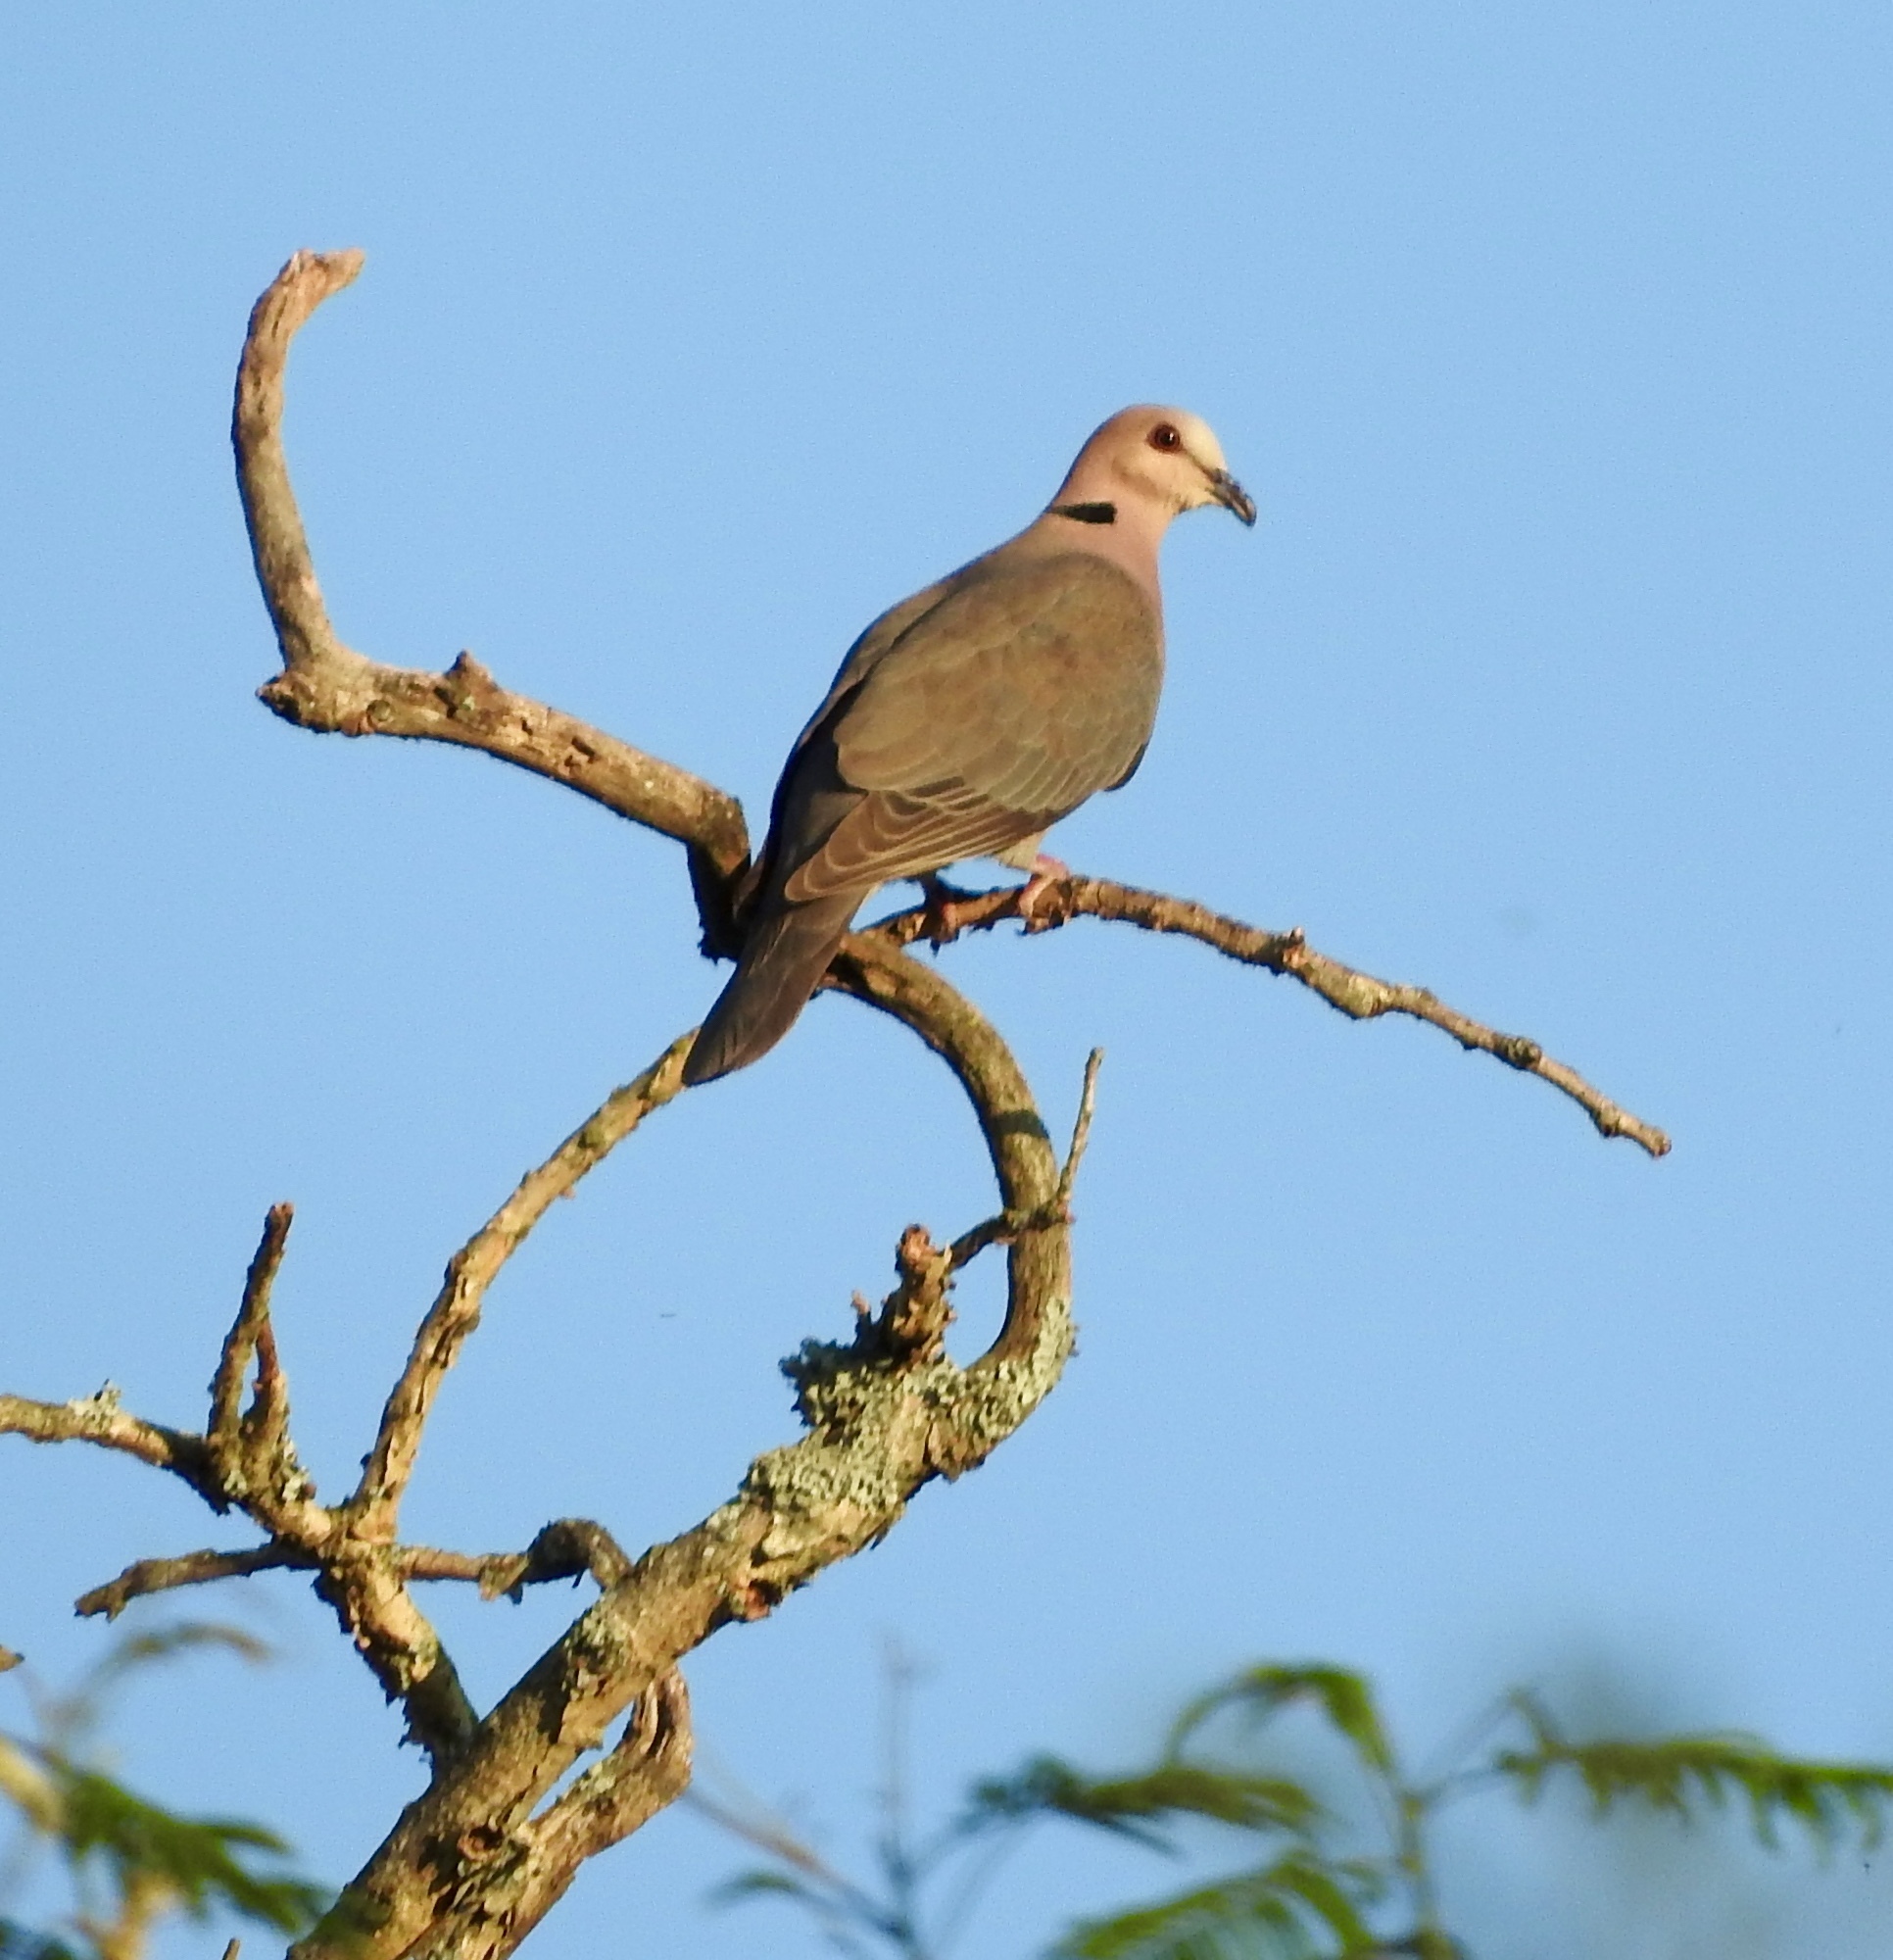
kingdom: Animalia
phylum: Chordata
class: Aves
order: Columbiformes
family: Columbidae
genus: Streptopelia
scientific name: Streptopelia semitorquata
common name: Red-eyed dove
